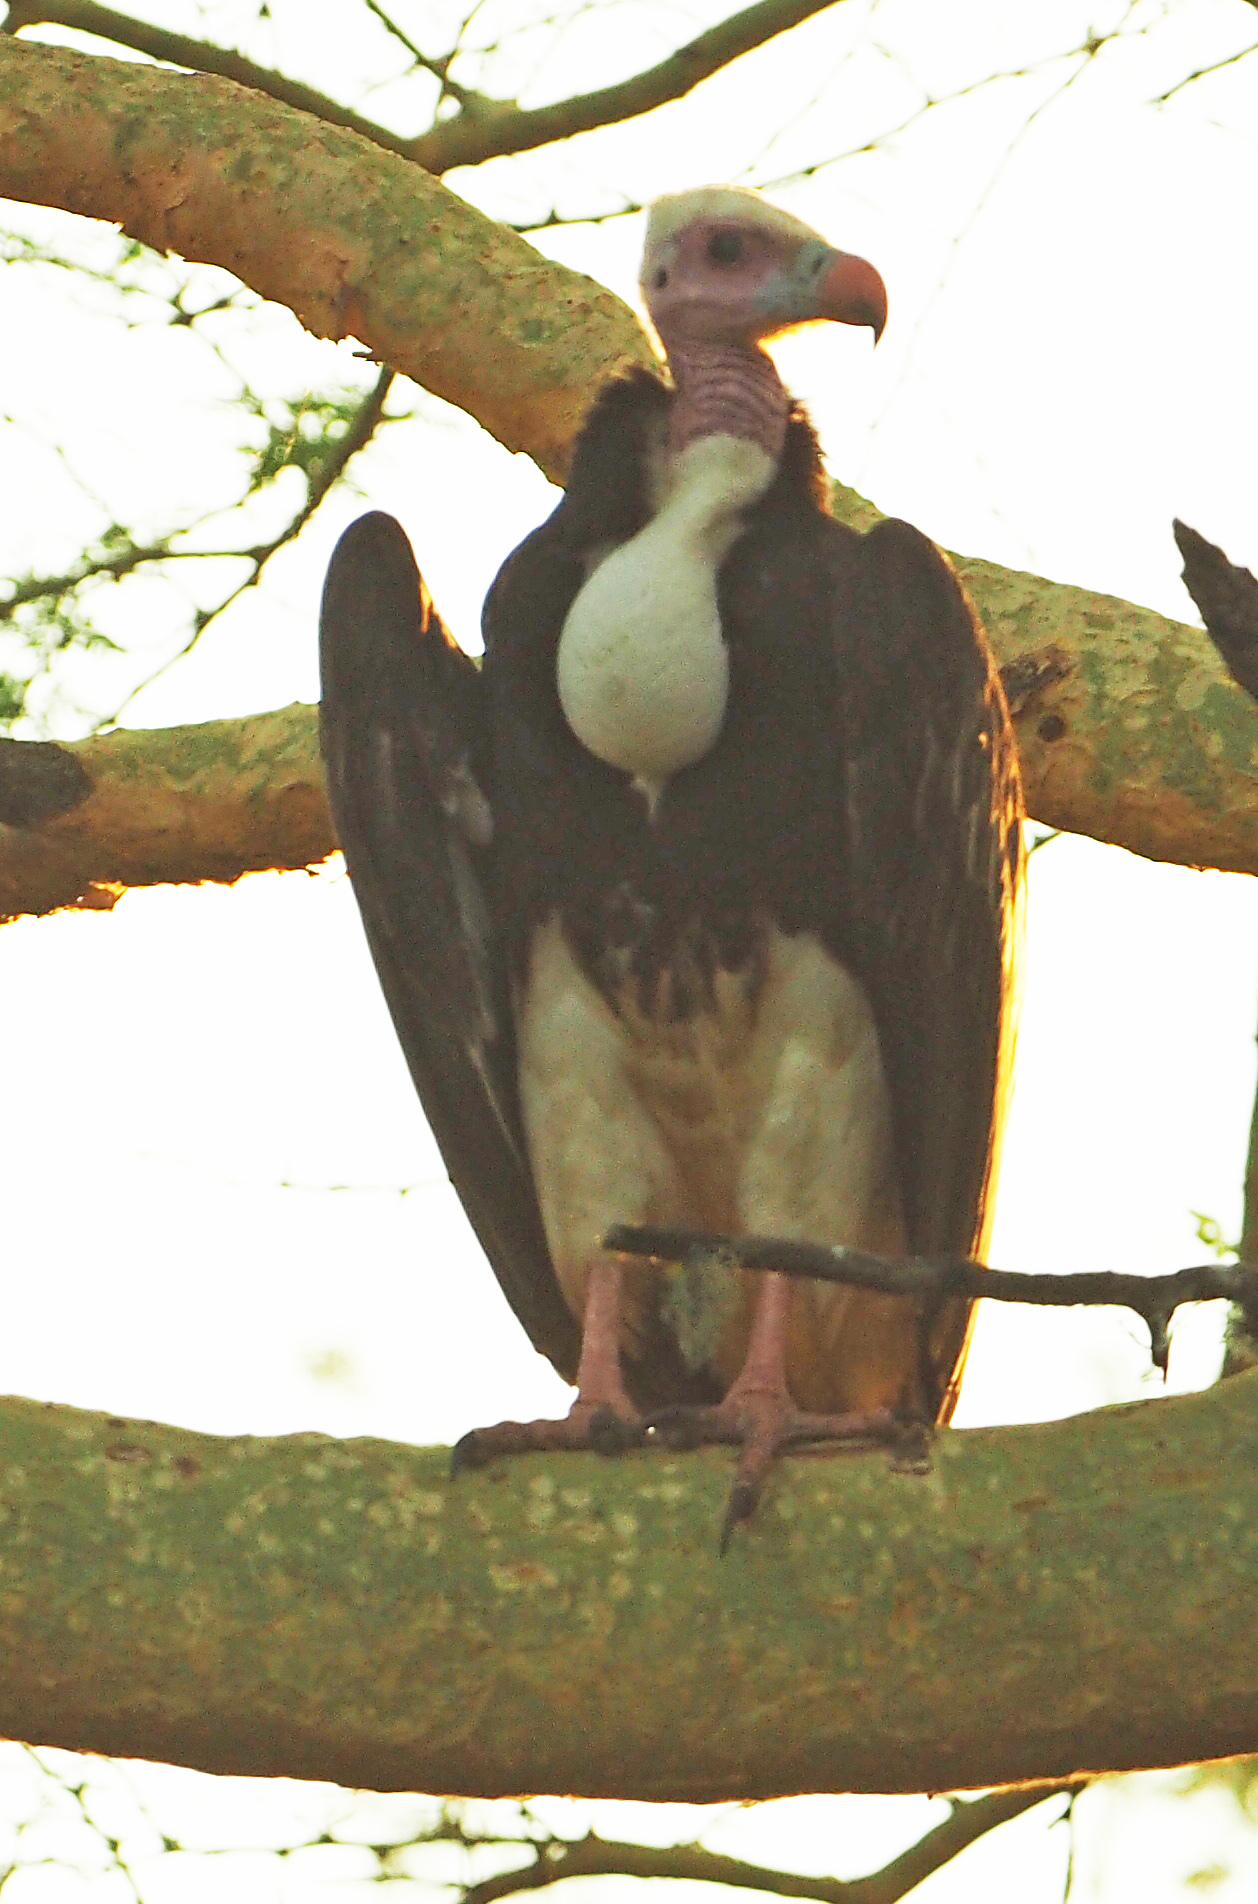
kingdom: Animalia
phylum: Chordata
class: Aves
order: Accipitriformes
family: Accipitridae
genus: Trigonoceps
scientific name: Trigonoceps occipitalis
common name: White-headed vulture
